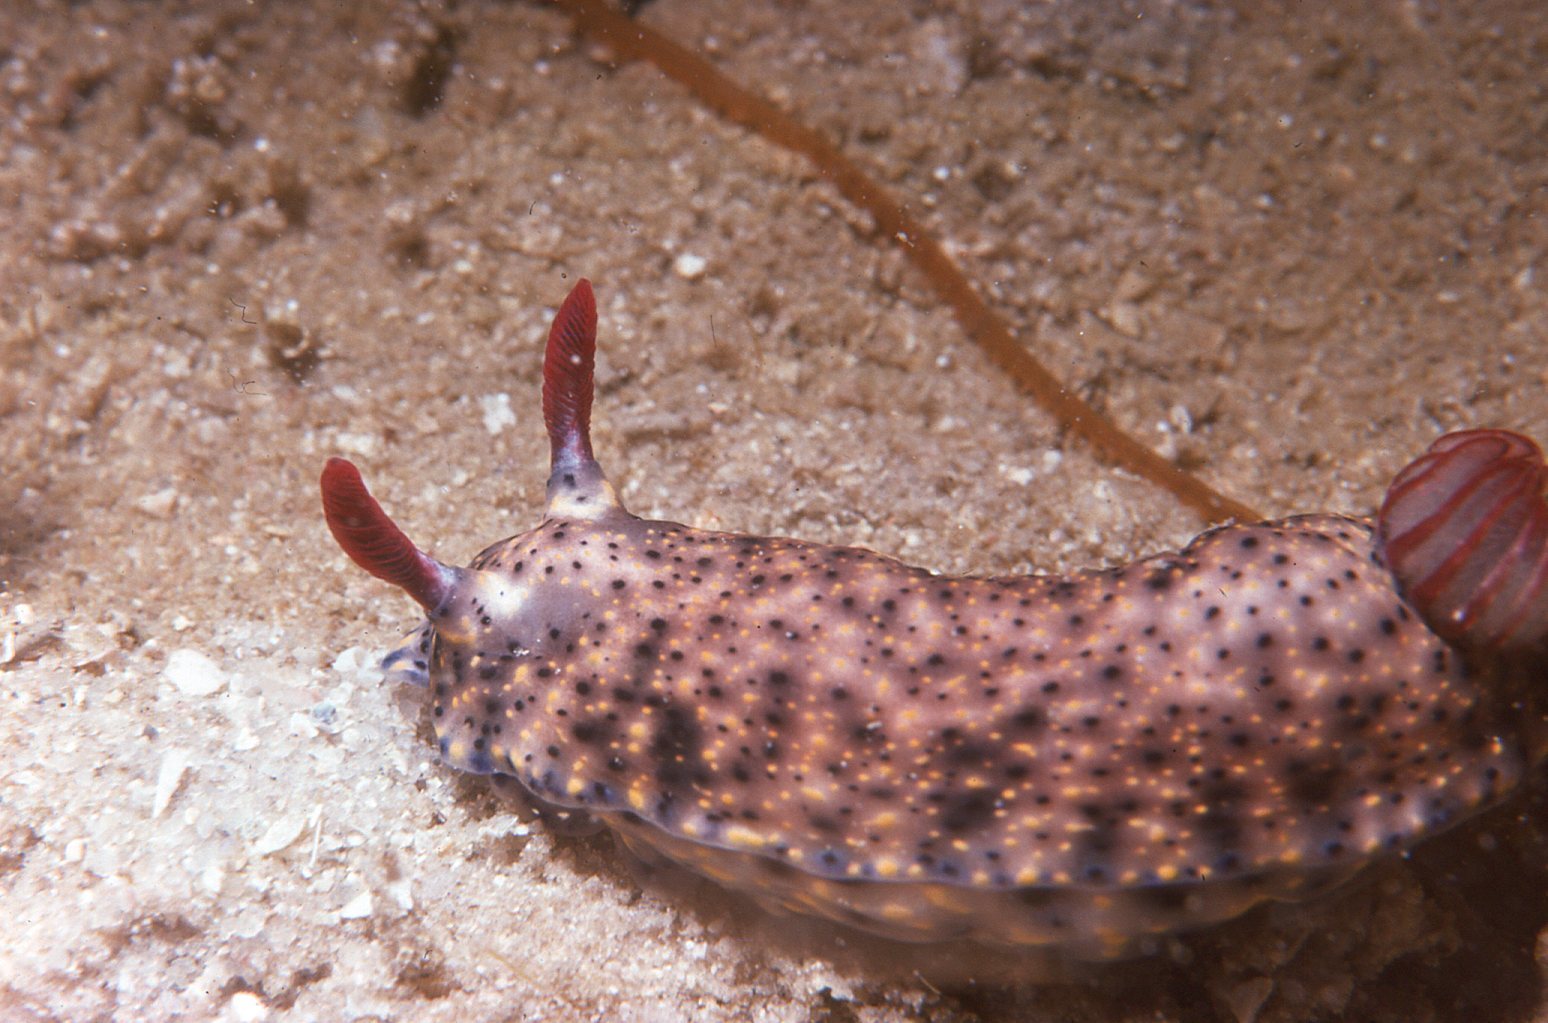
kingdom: Animalia
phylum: Mollusca
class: Gastropoda
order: Nudibranchia
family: Chromodorididae
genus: Hypselodoris
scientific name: Hypselodoris obscura
